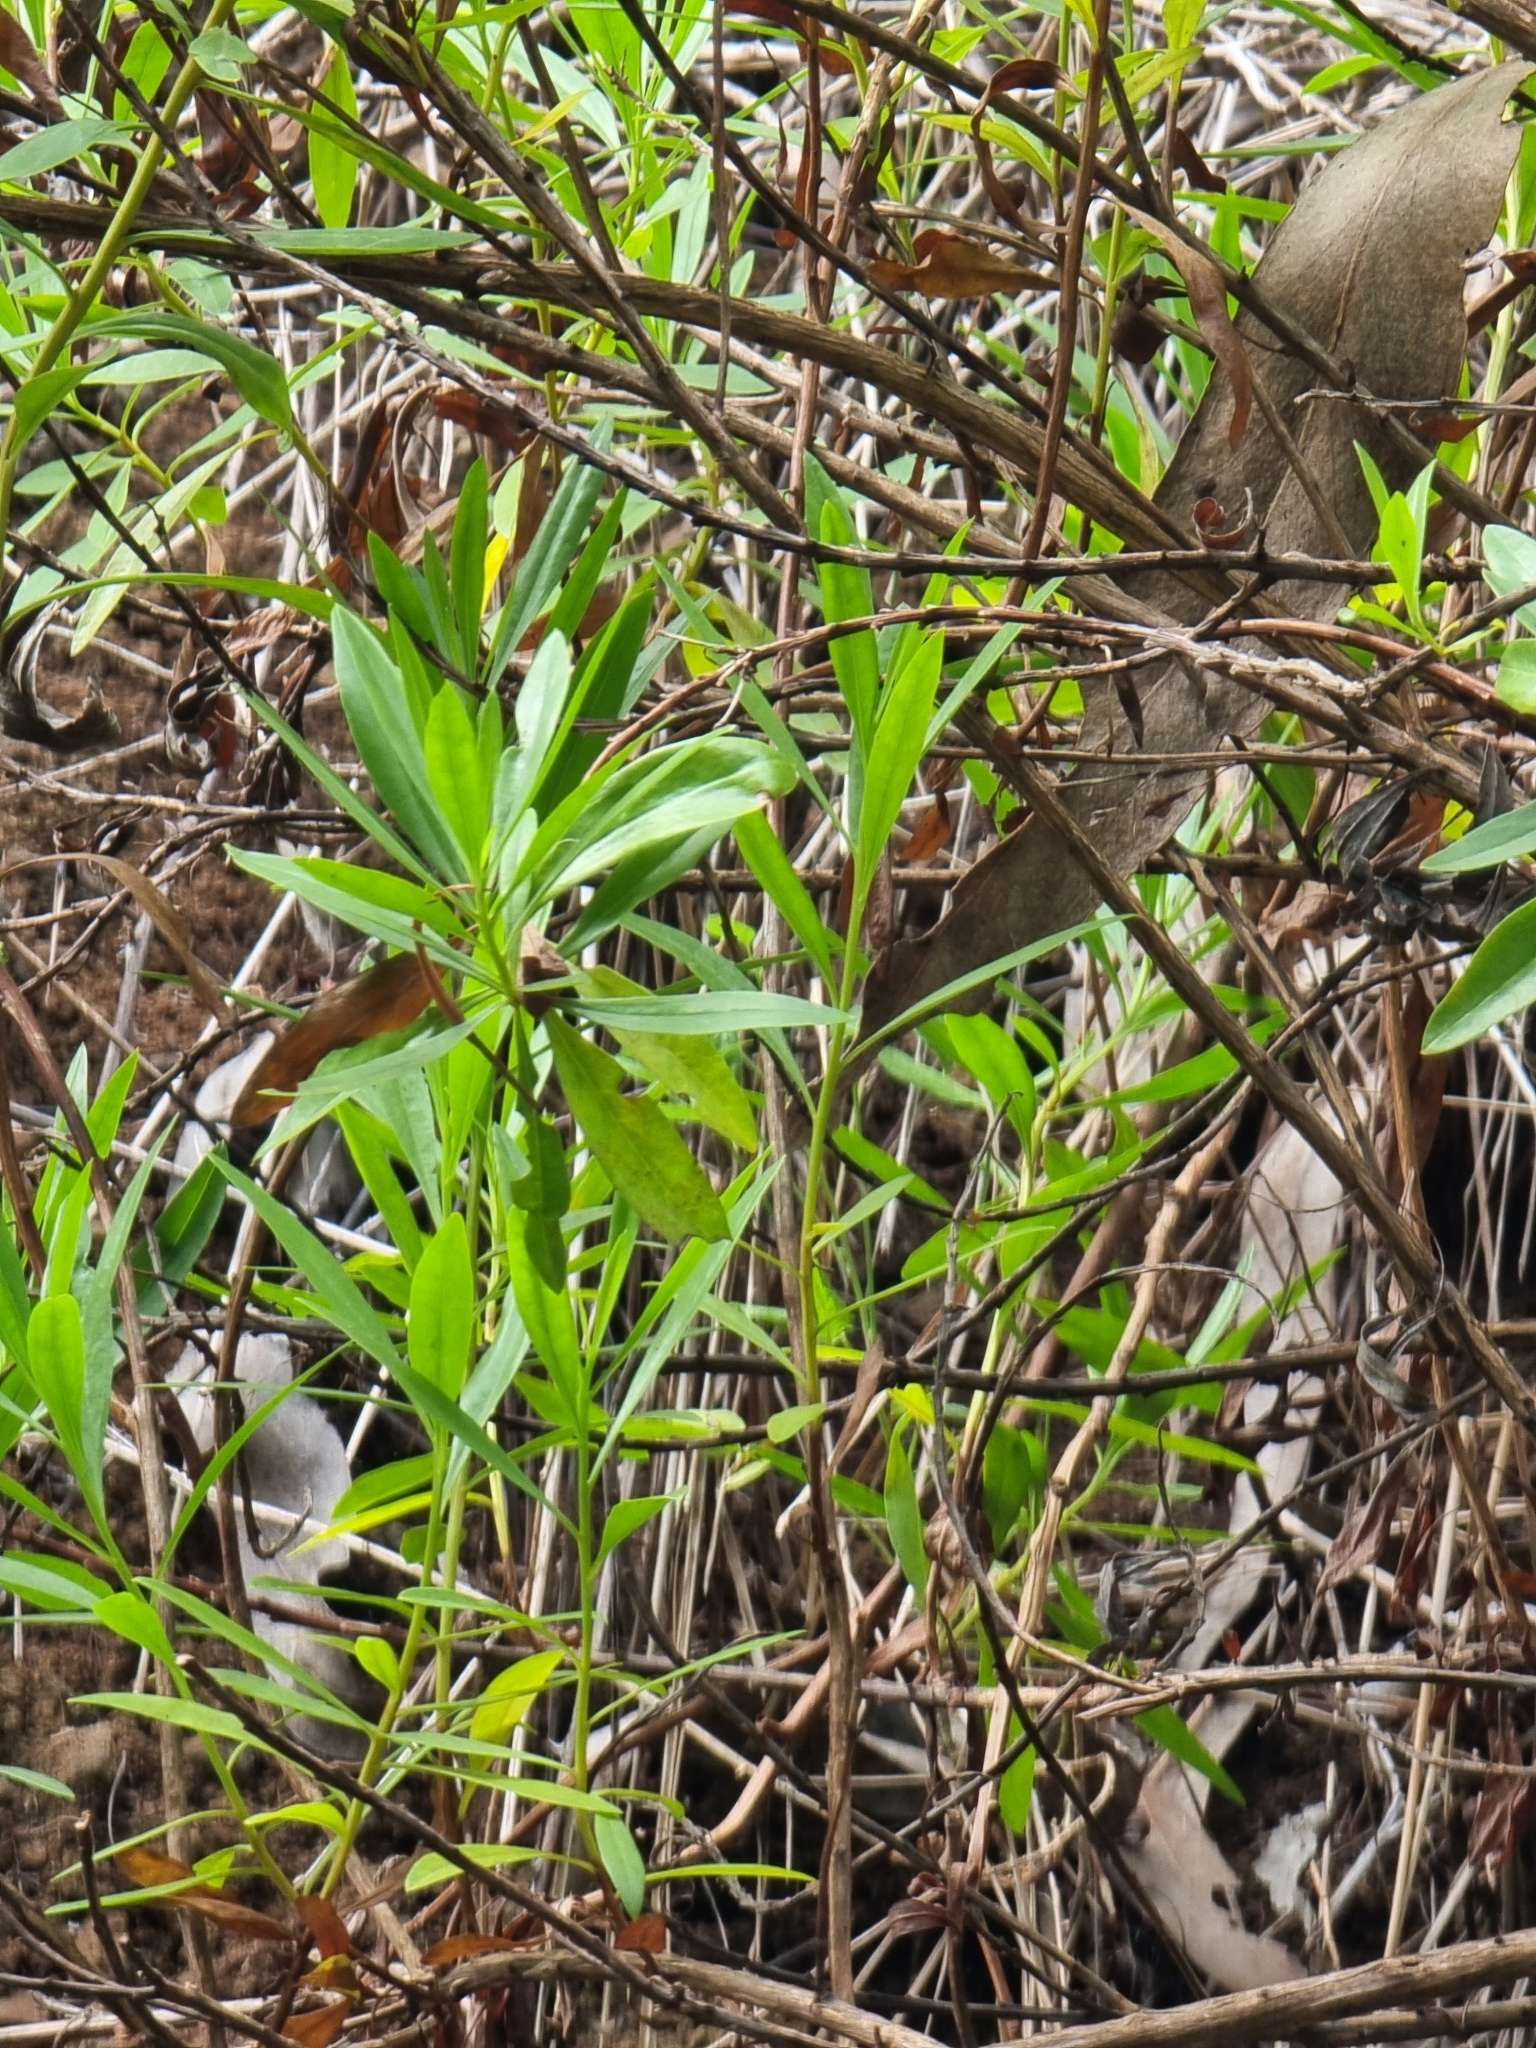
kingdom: Plantae
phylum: Tracheophyta
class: Magnoliopsida
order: Lamiales
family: Plantaginaceae
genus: Globularia
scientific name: Globularia salicina
